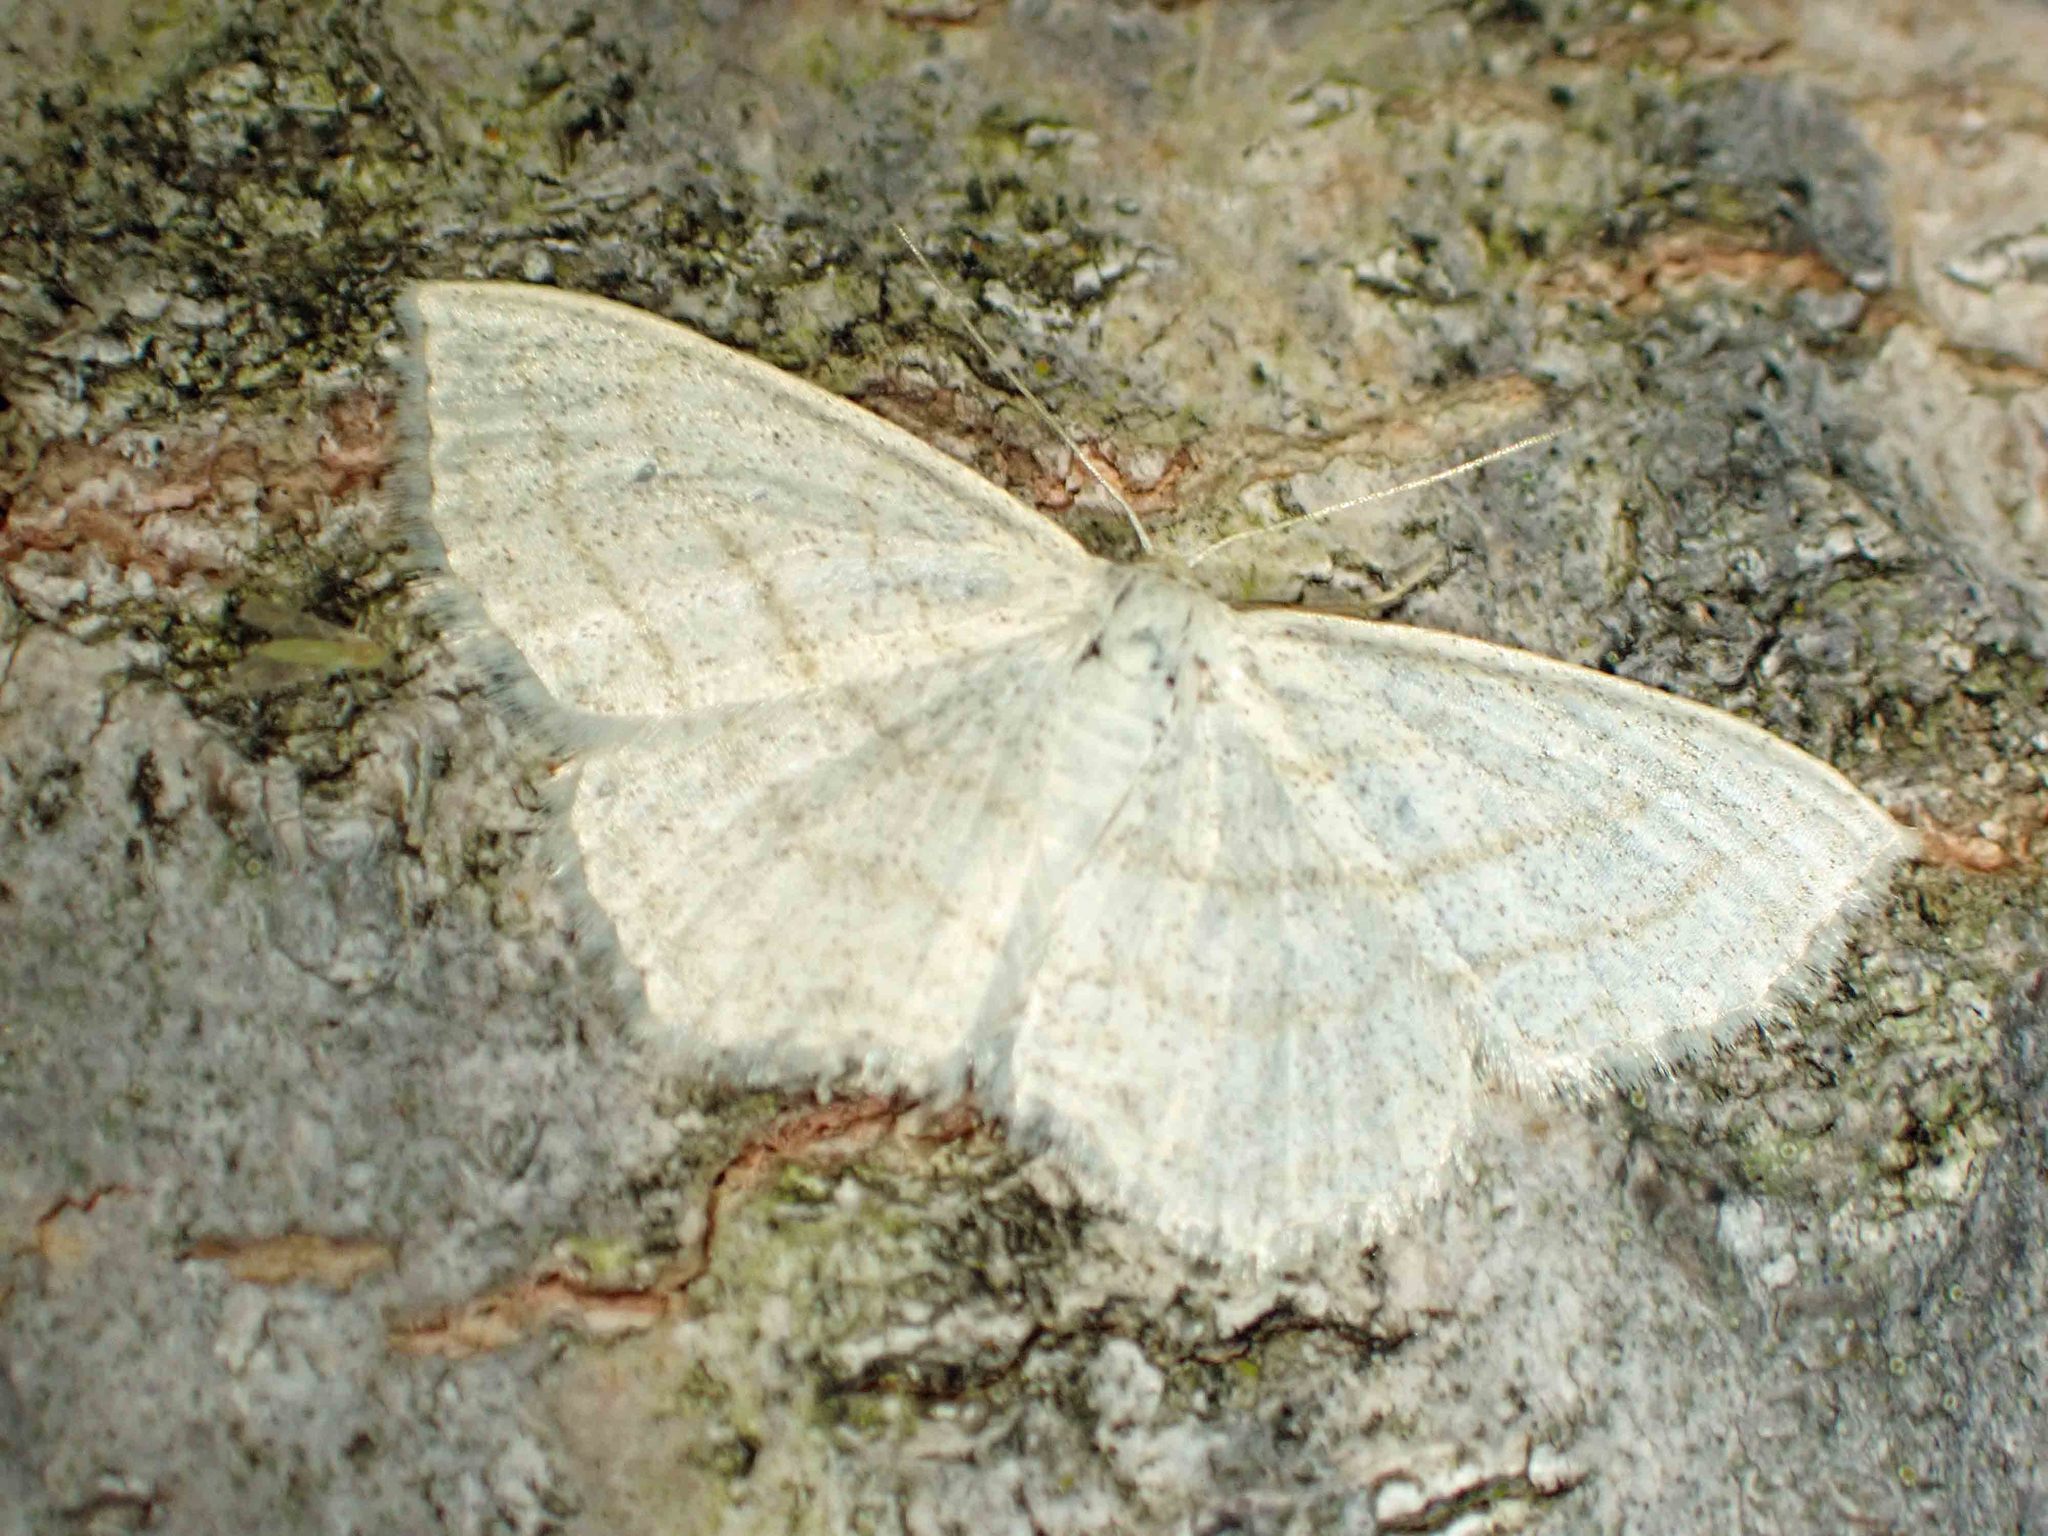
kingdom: Animalia
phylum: Arthropoda
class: Insecta
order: Lepidoptera
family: Geometridae
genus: Scopula
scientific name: Scopula junctaria
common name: Simple wave
